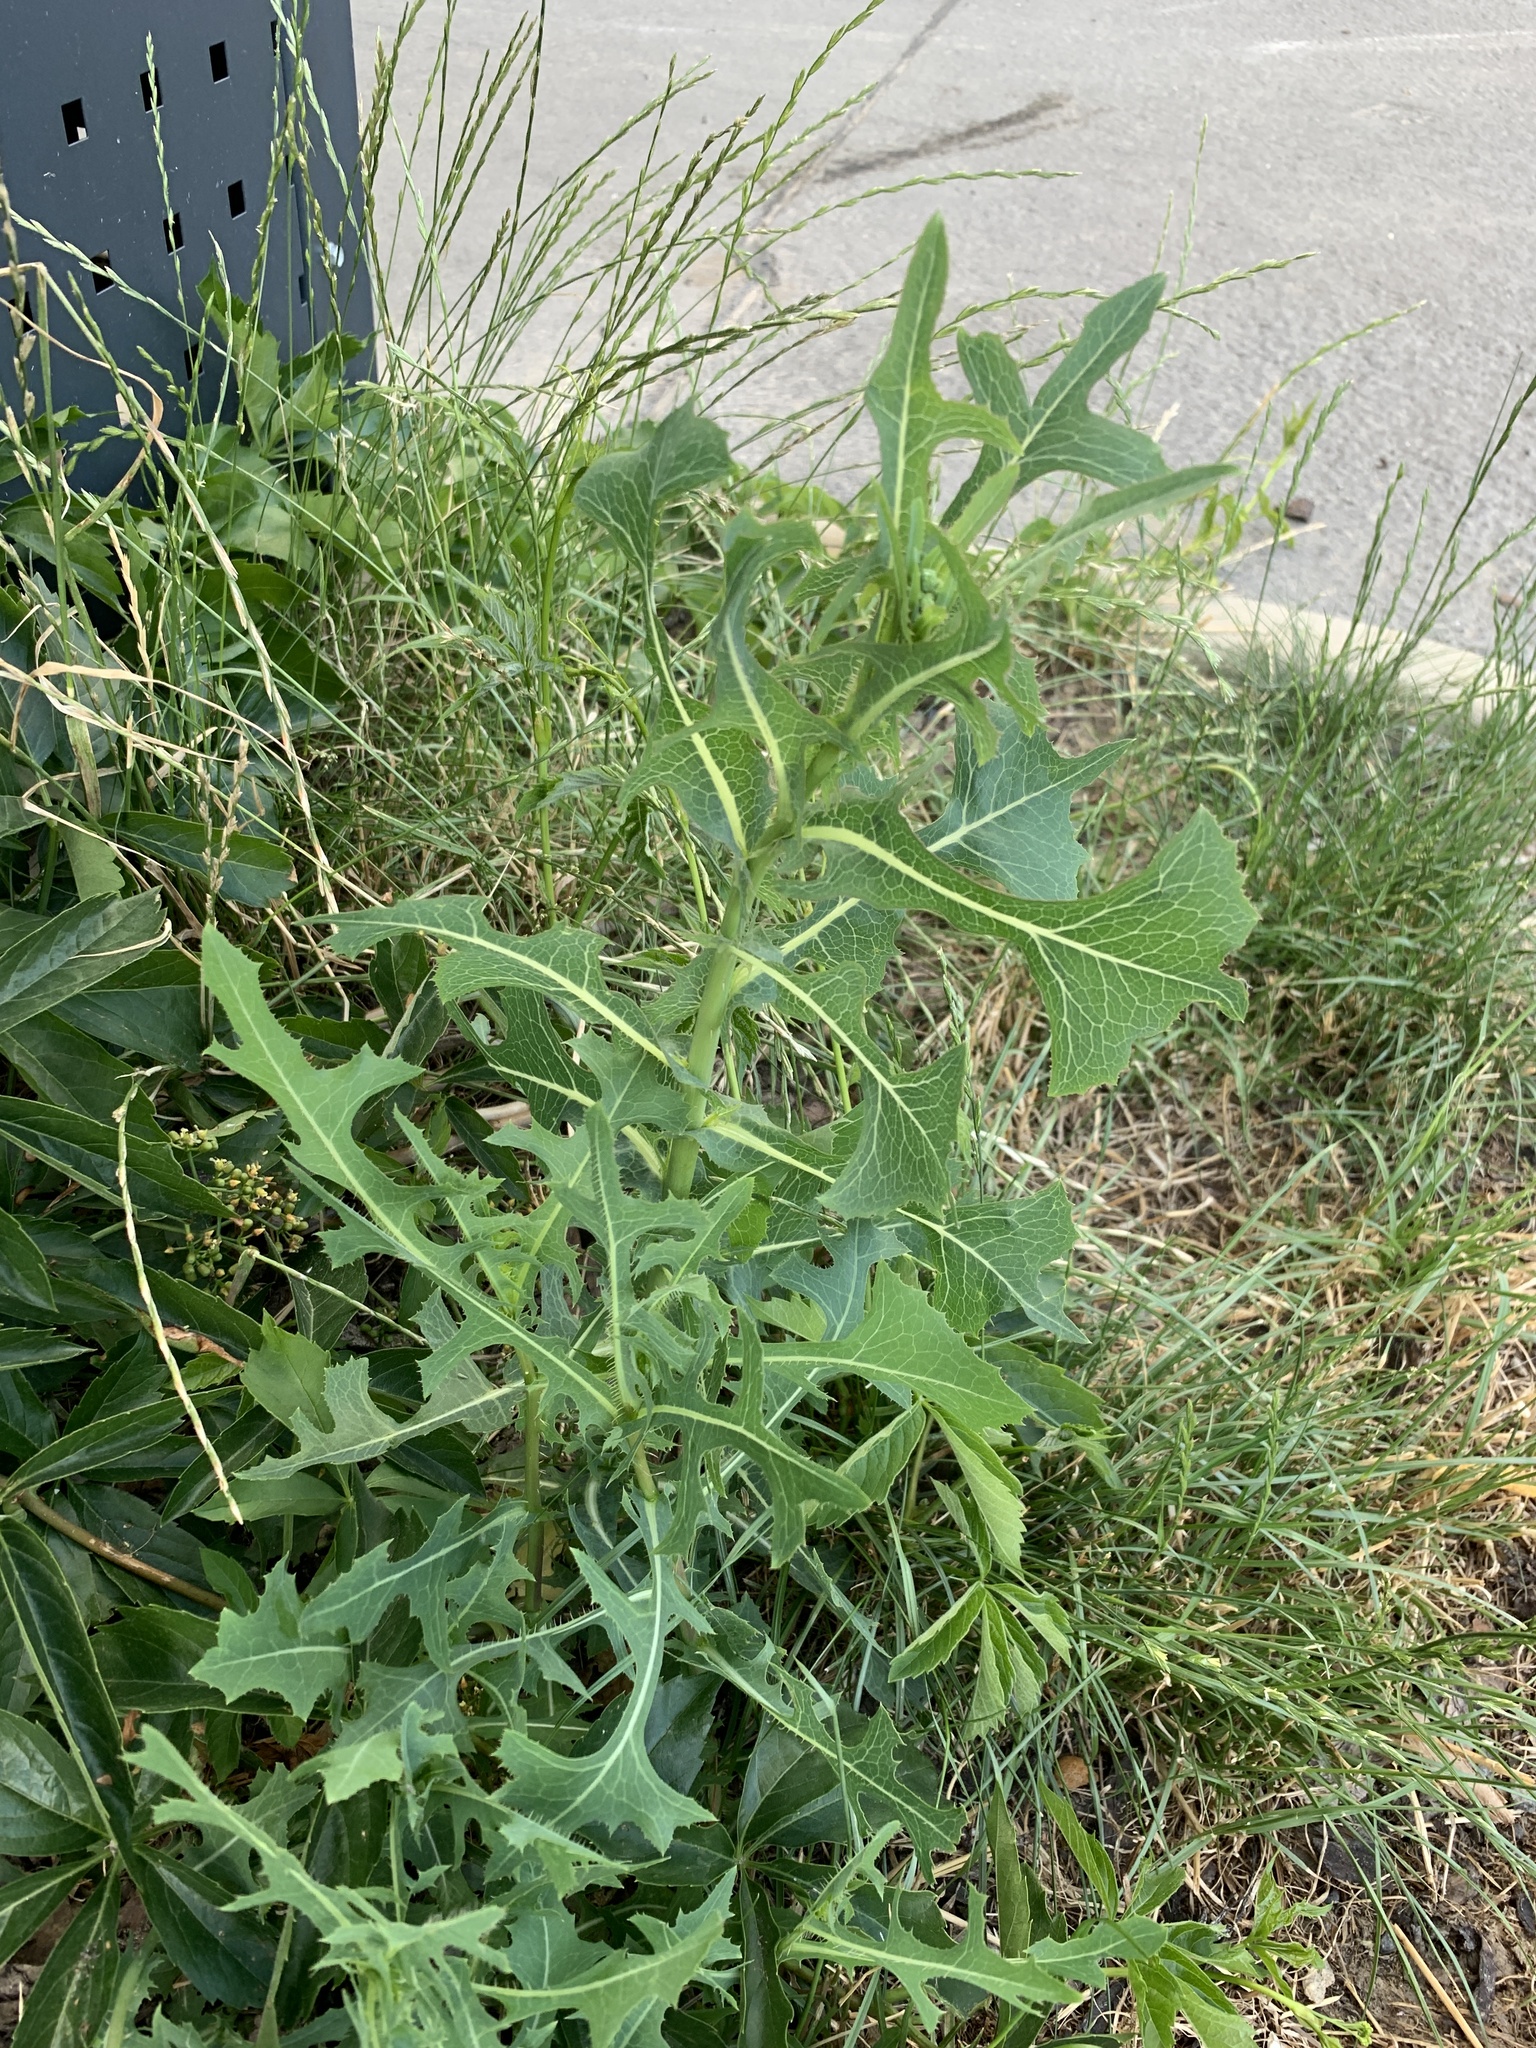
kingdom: Plantae
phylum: Tracheophyta
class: Magnoliopsida
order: Asterales
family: Asteraceae
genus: Lactuca
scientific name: Lactuca serriola
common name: Prickly lettuce
